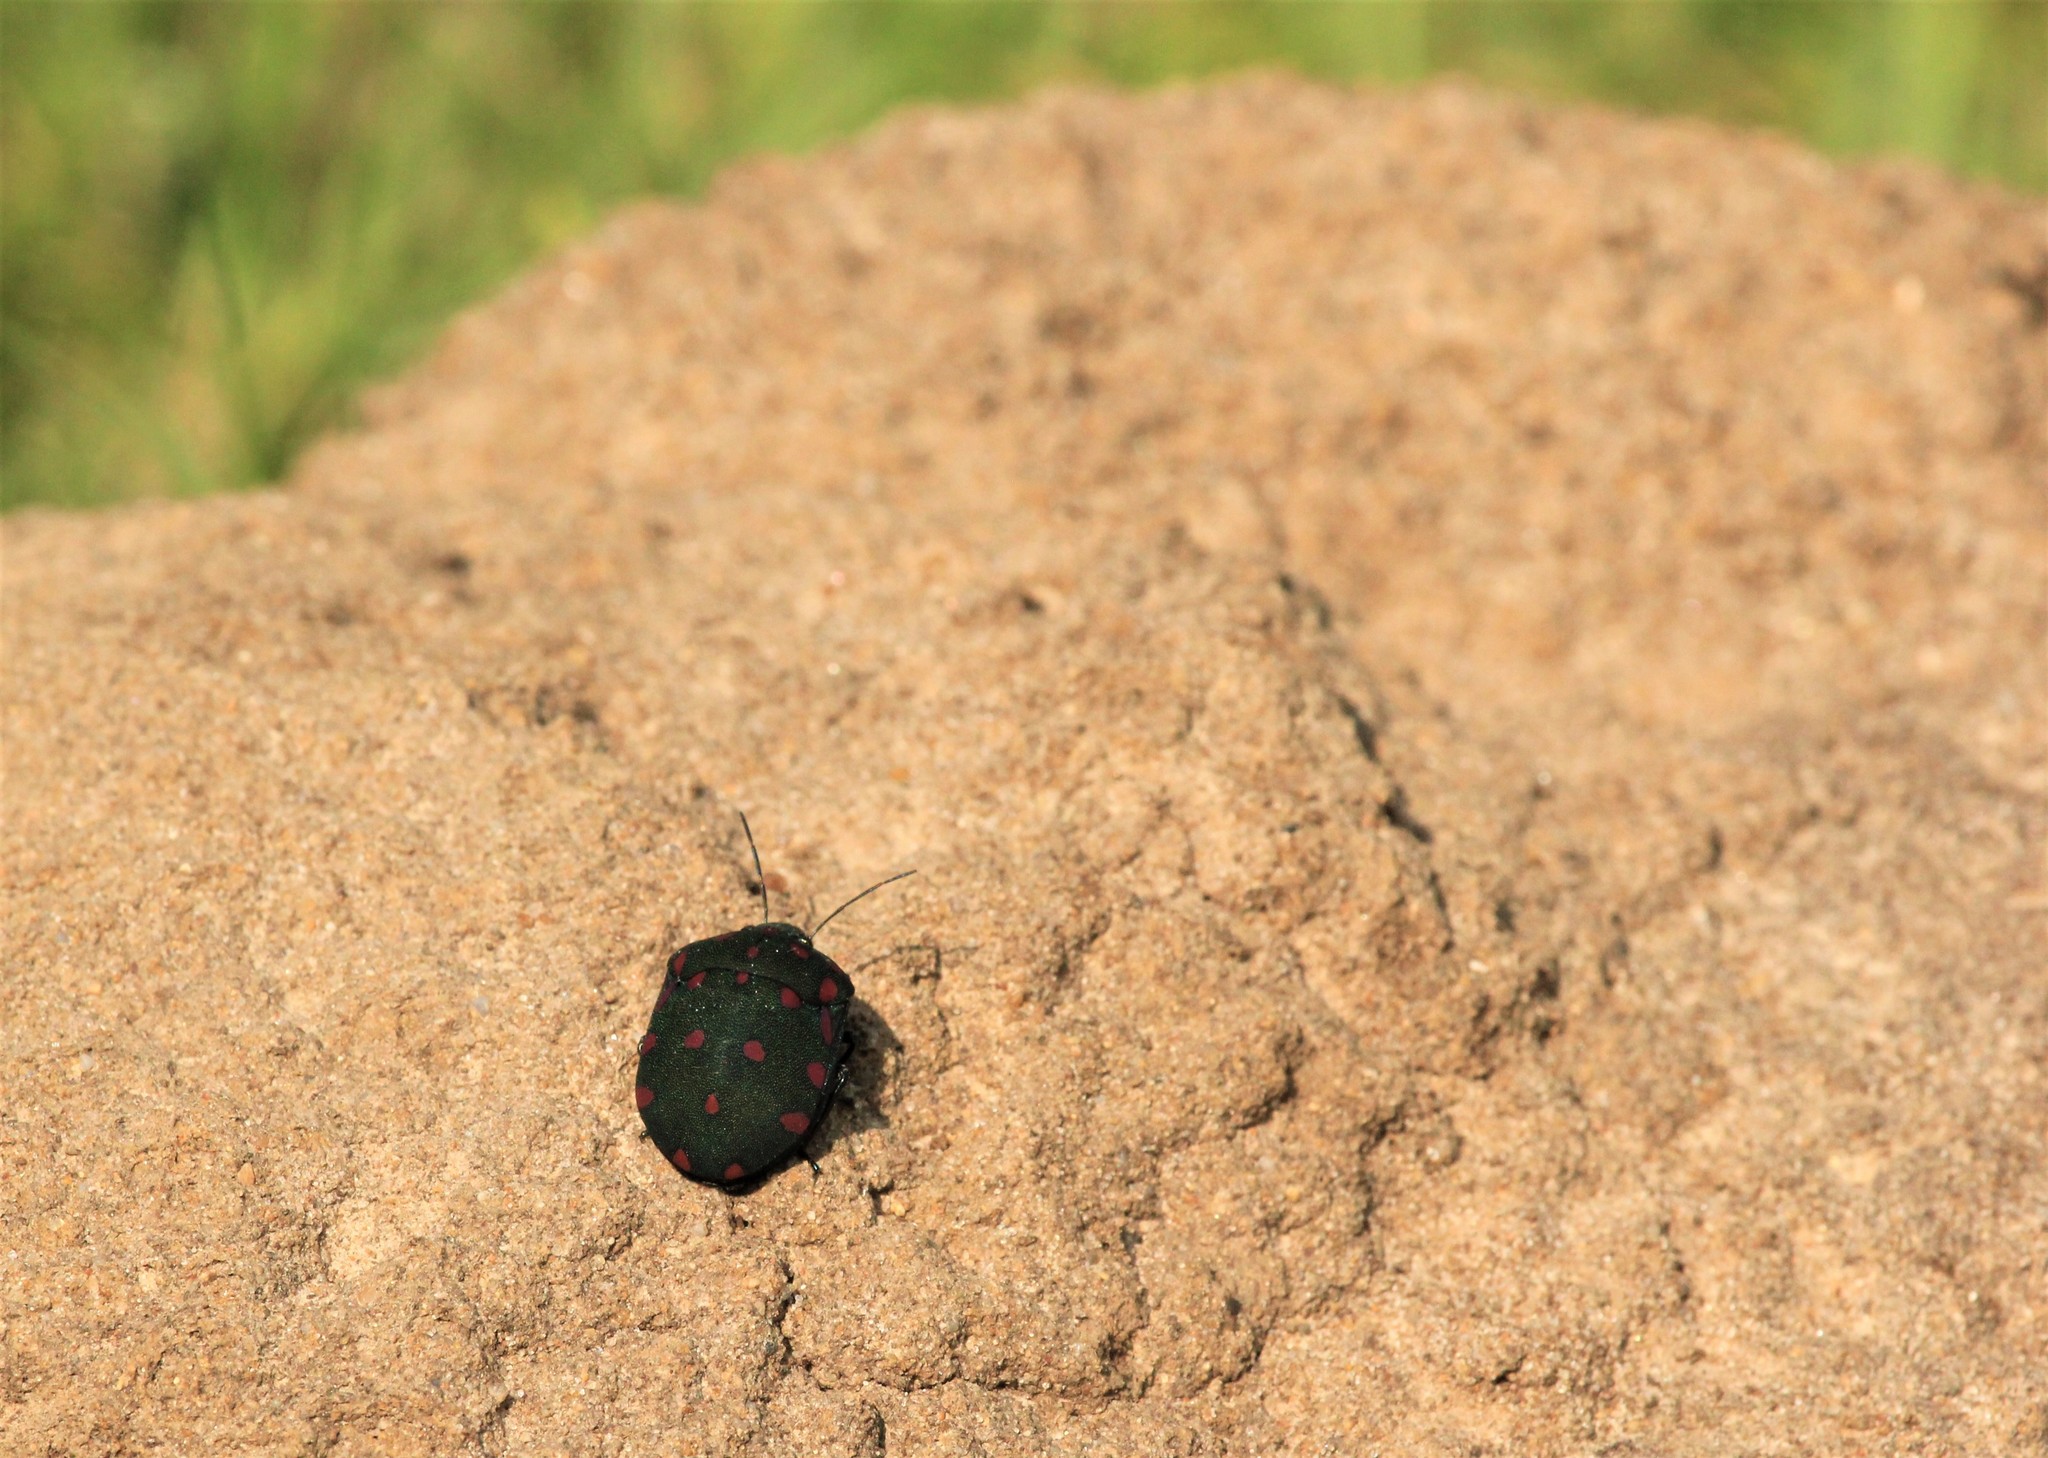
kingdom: Animalia
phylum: Arthropoda
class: Insecta
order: Hemiptera
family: Scutelleridae
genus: Pachycoris
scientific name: Pachycoris torridus
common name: Torrid jewel bug
